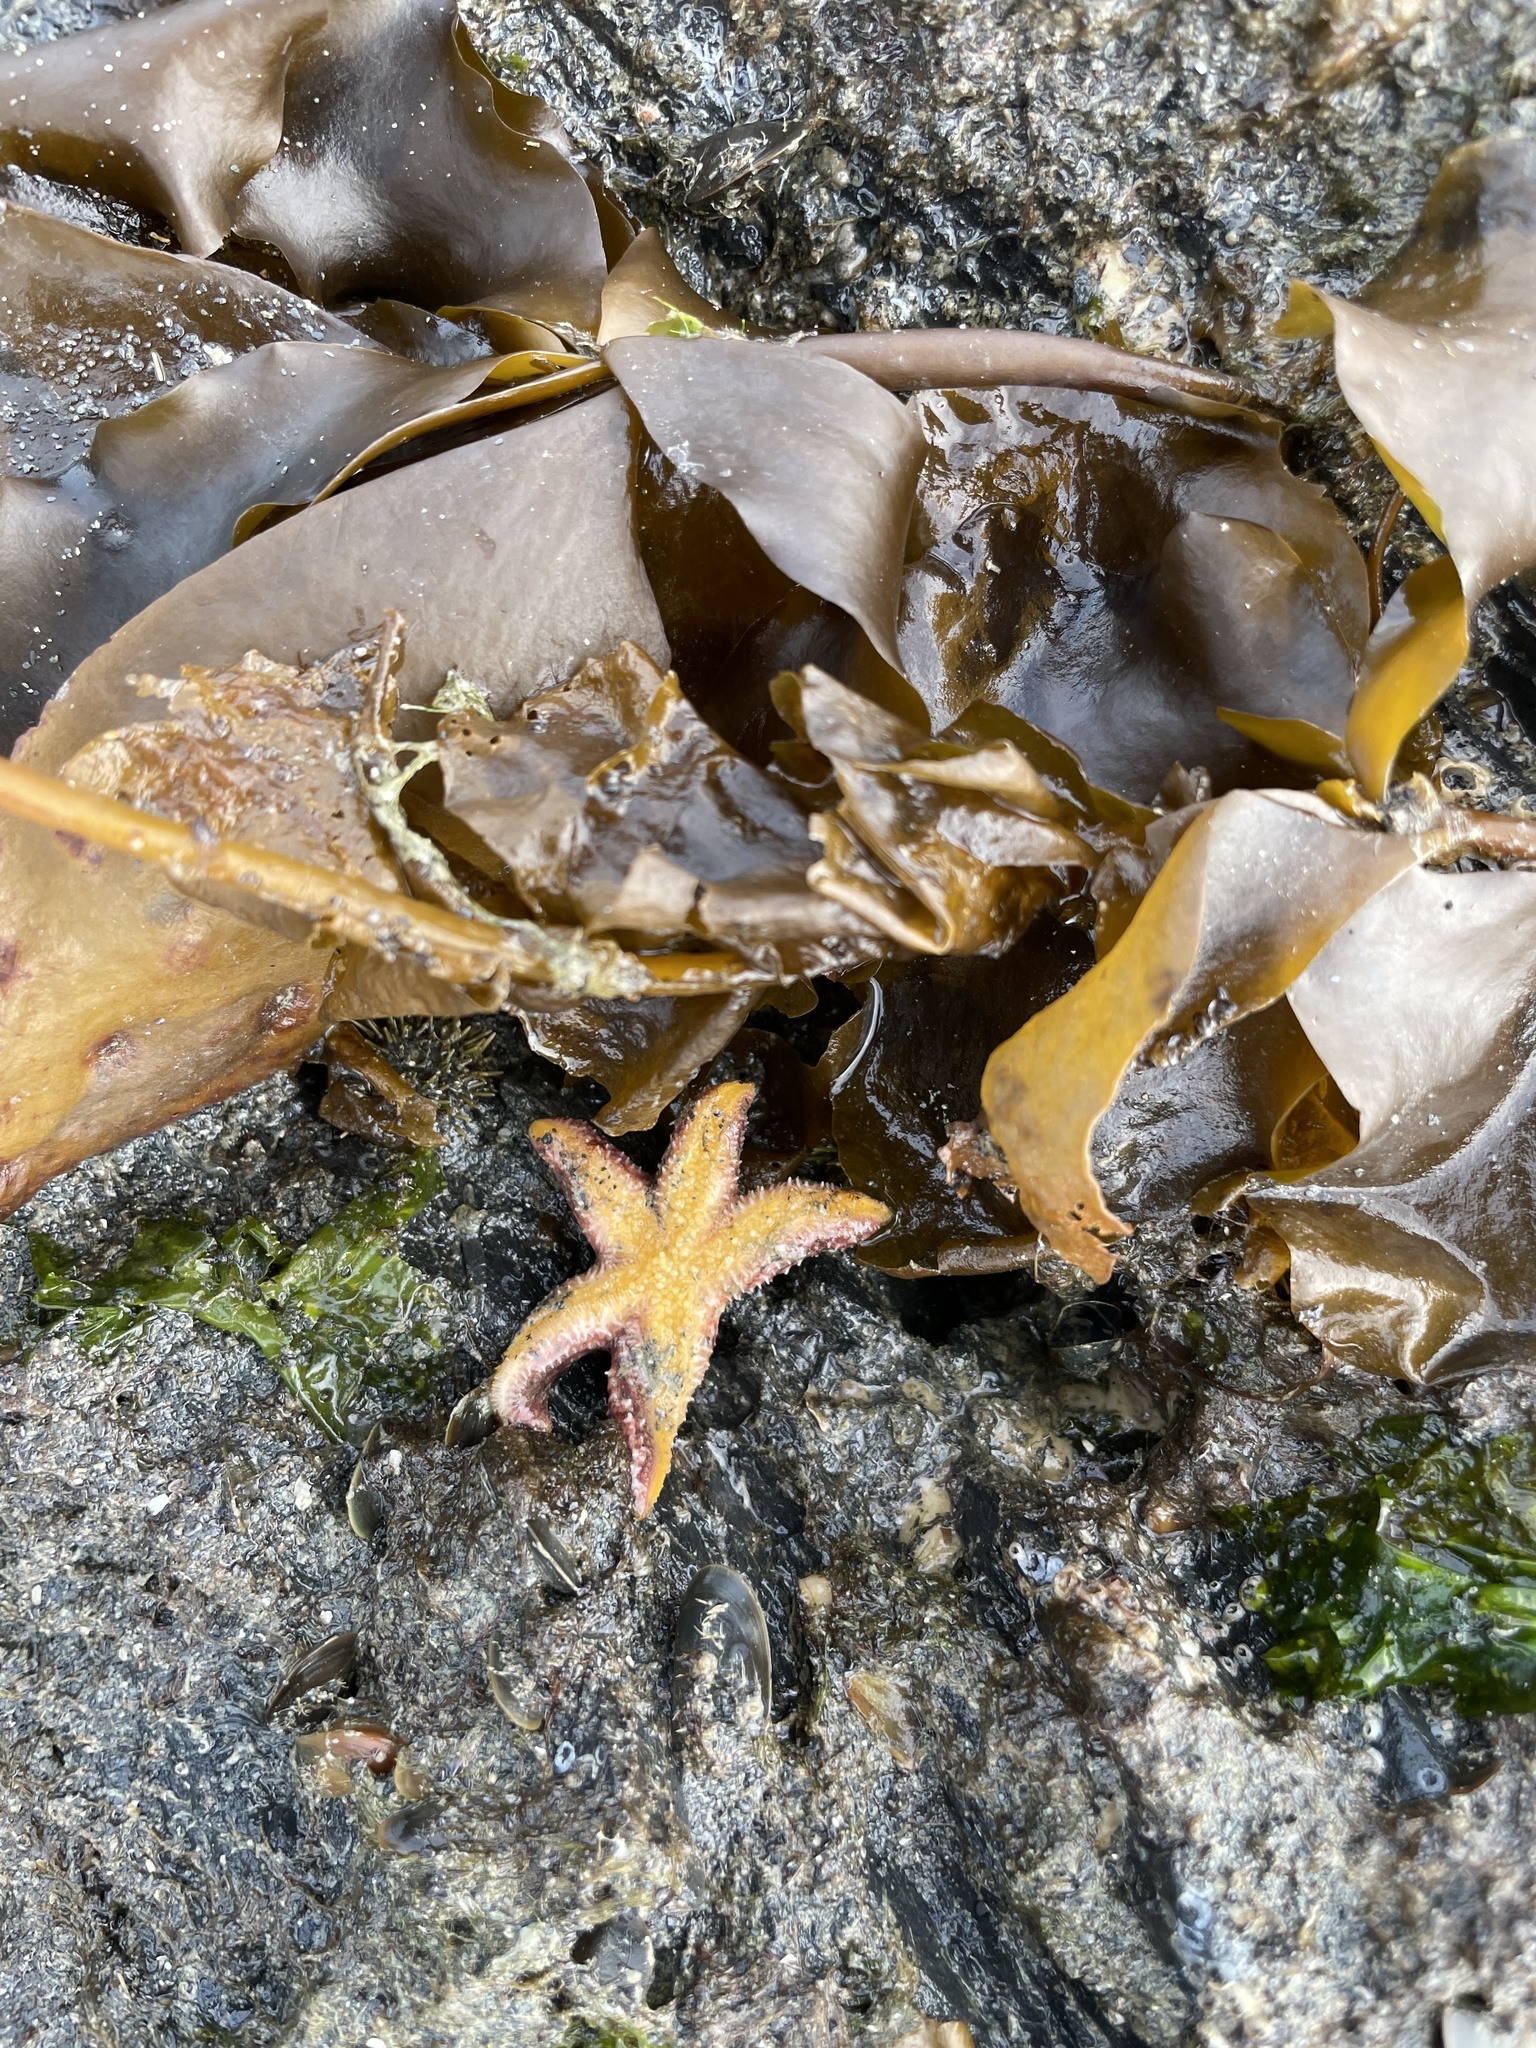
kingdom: Animalia
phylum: Echinodermata
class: Asteroidea
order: Forcipulatida
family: Asteriidae
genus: Pisaster
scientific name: Pisaster ochraceus
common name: Ochre stars
